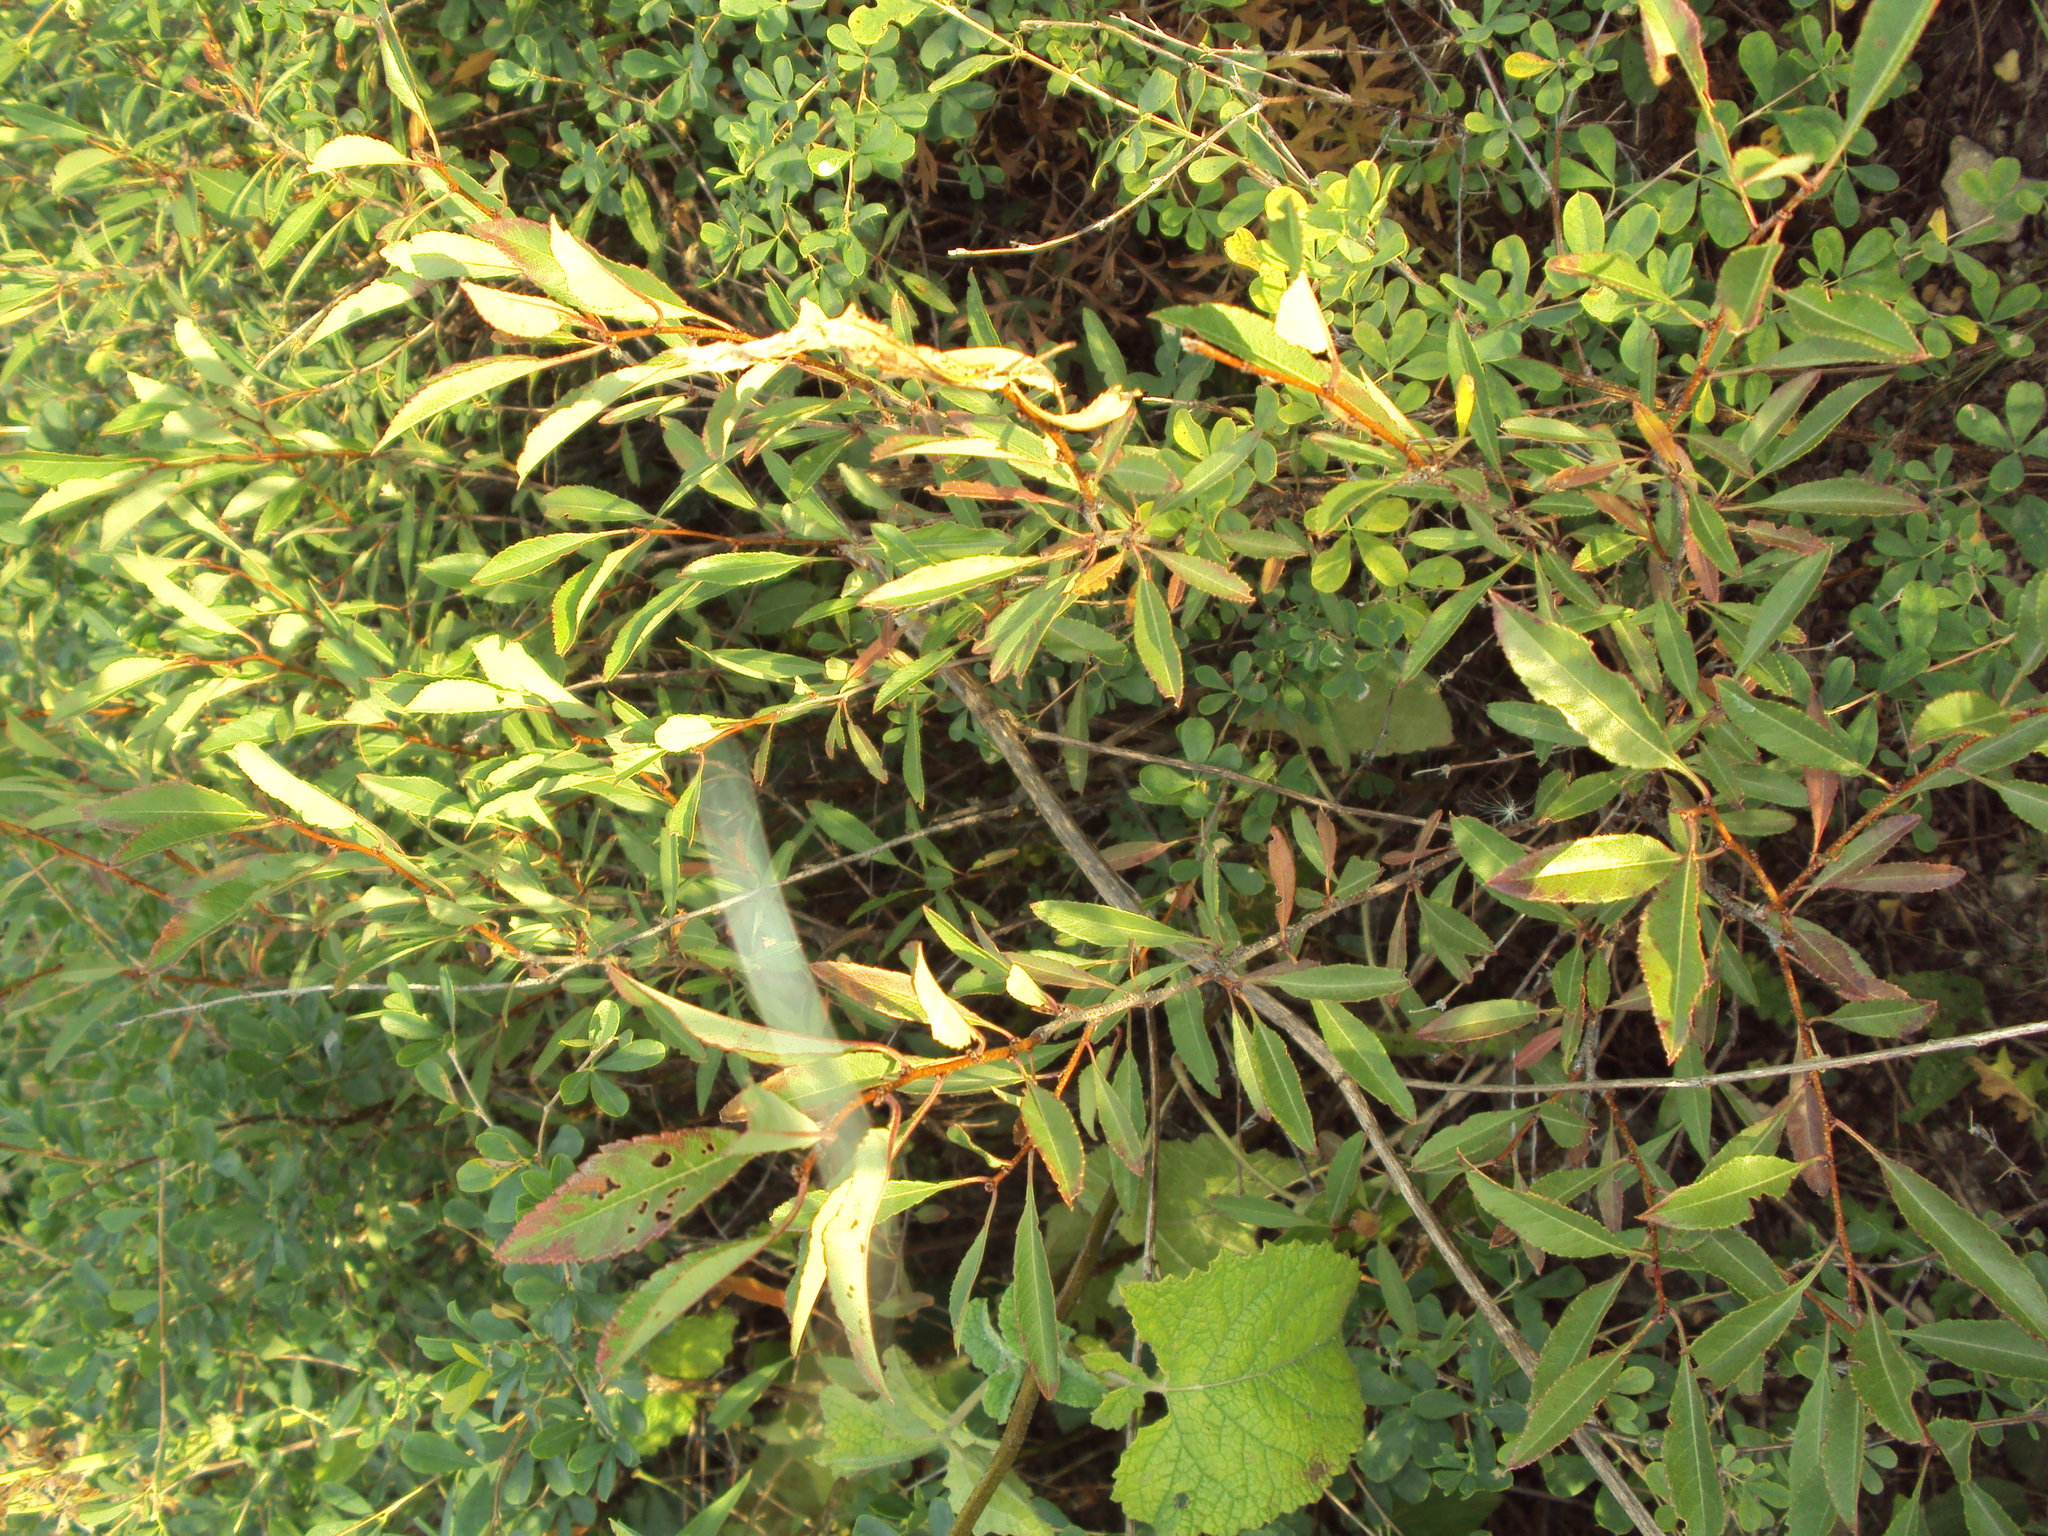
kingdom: Plantae
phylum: Tracheophyta
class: Magnoliopsida
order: Rosales
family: Rosaceae
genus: Prunus
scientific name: Prunus tenella
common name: Dwarf russian almond
